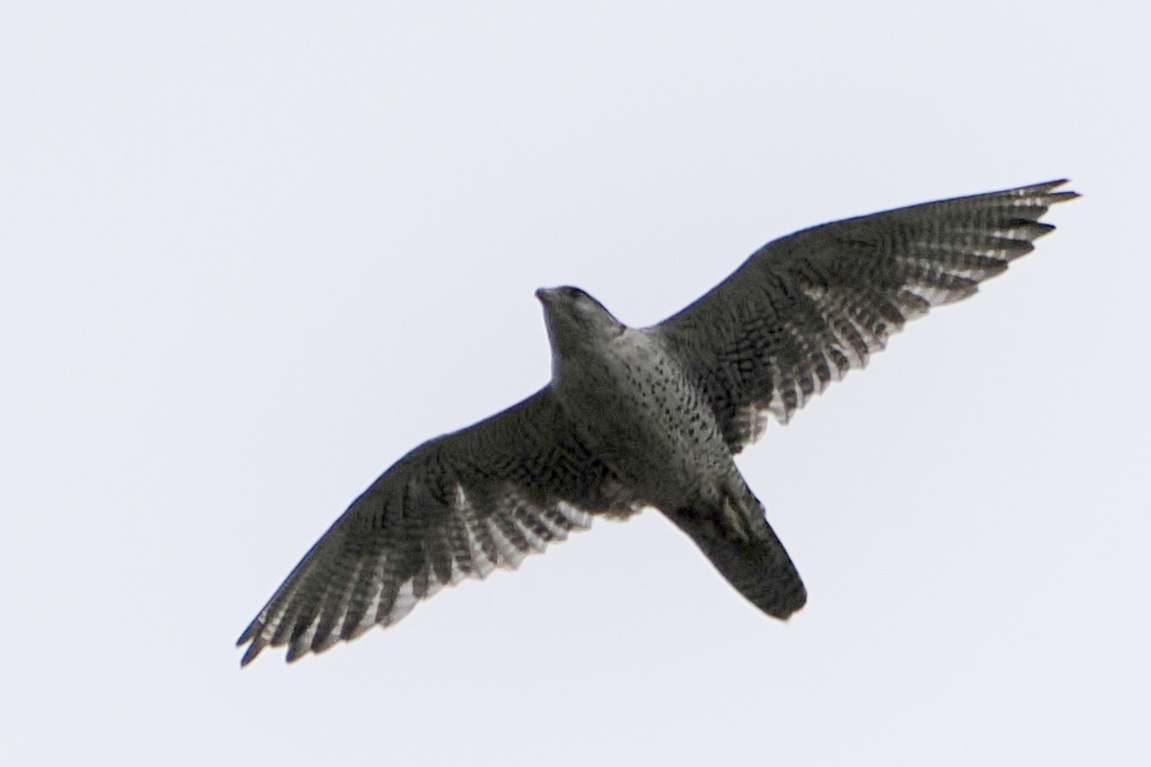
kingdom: Animalia
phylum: Chordata
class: Aves
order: Falconiformes
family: Falconidae
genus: Falco
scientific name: Falco rusticolus
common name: Gyrfalcon
